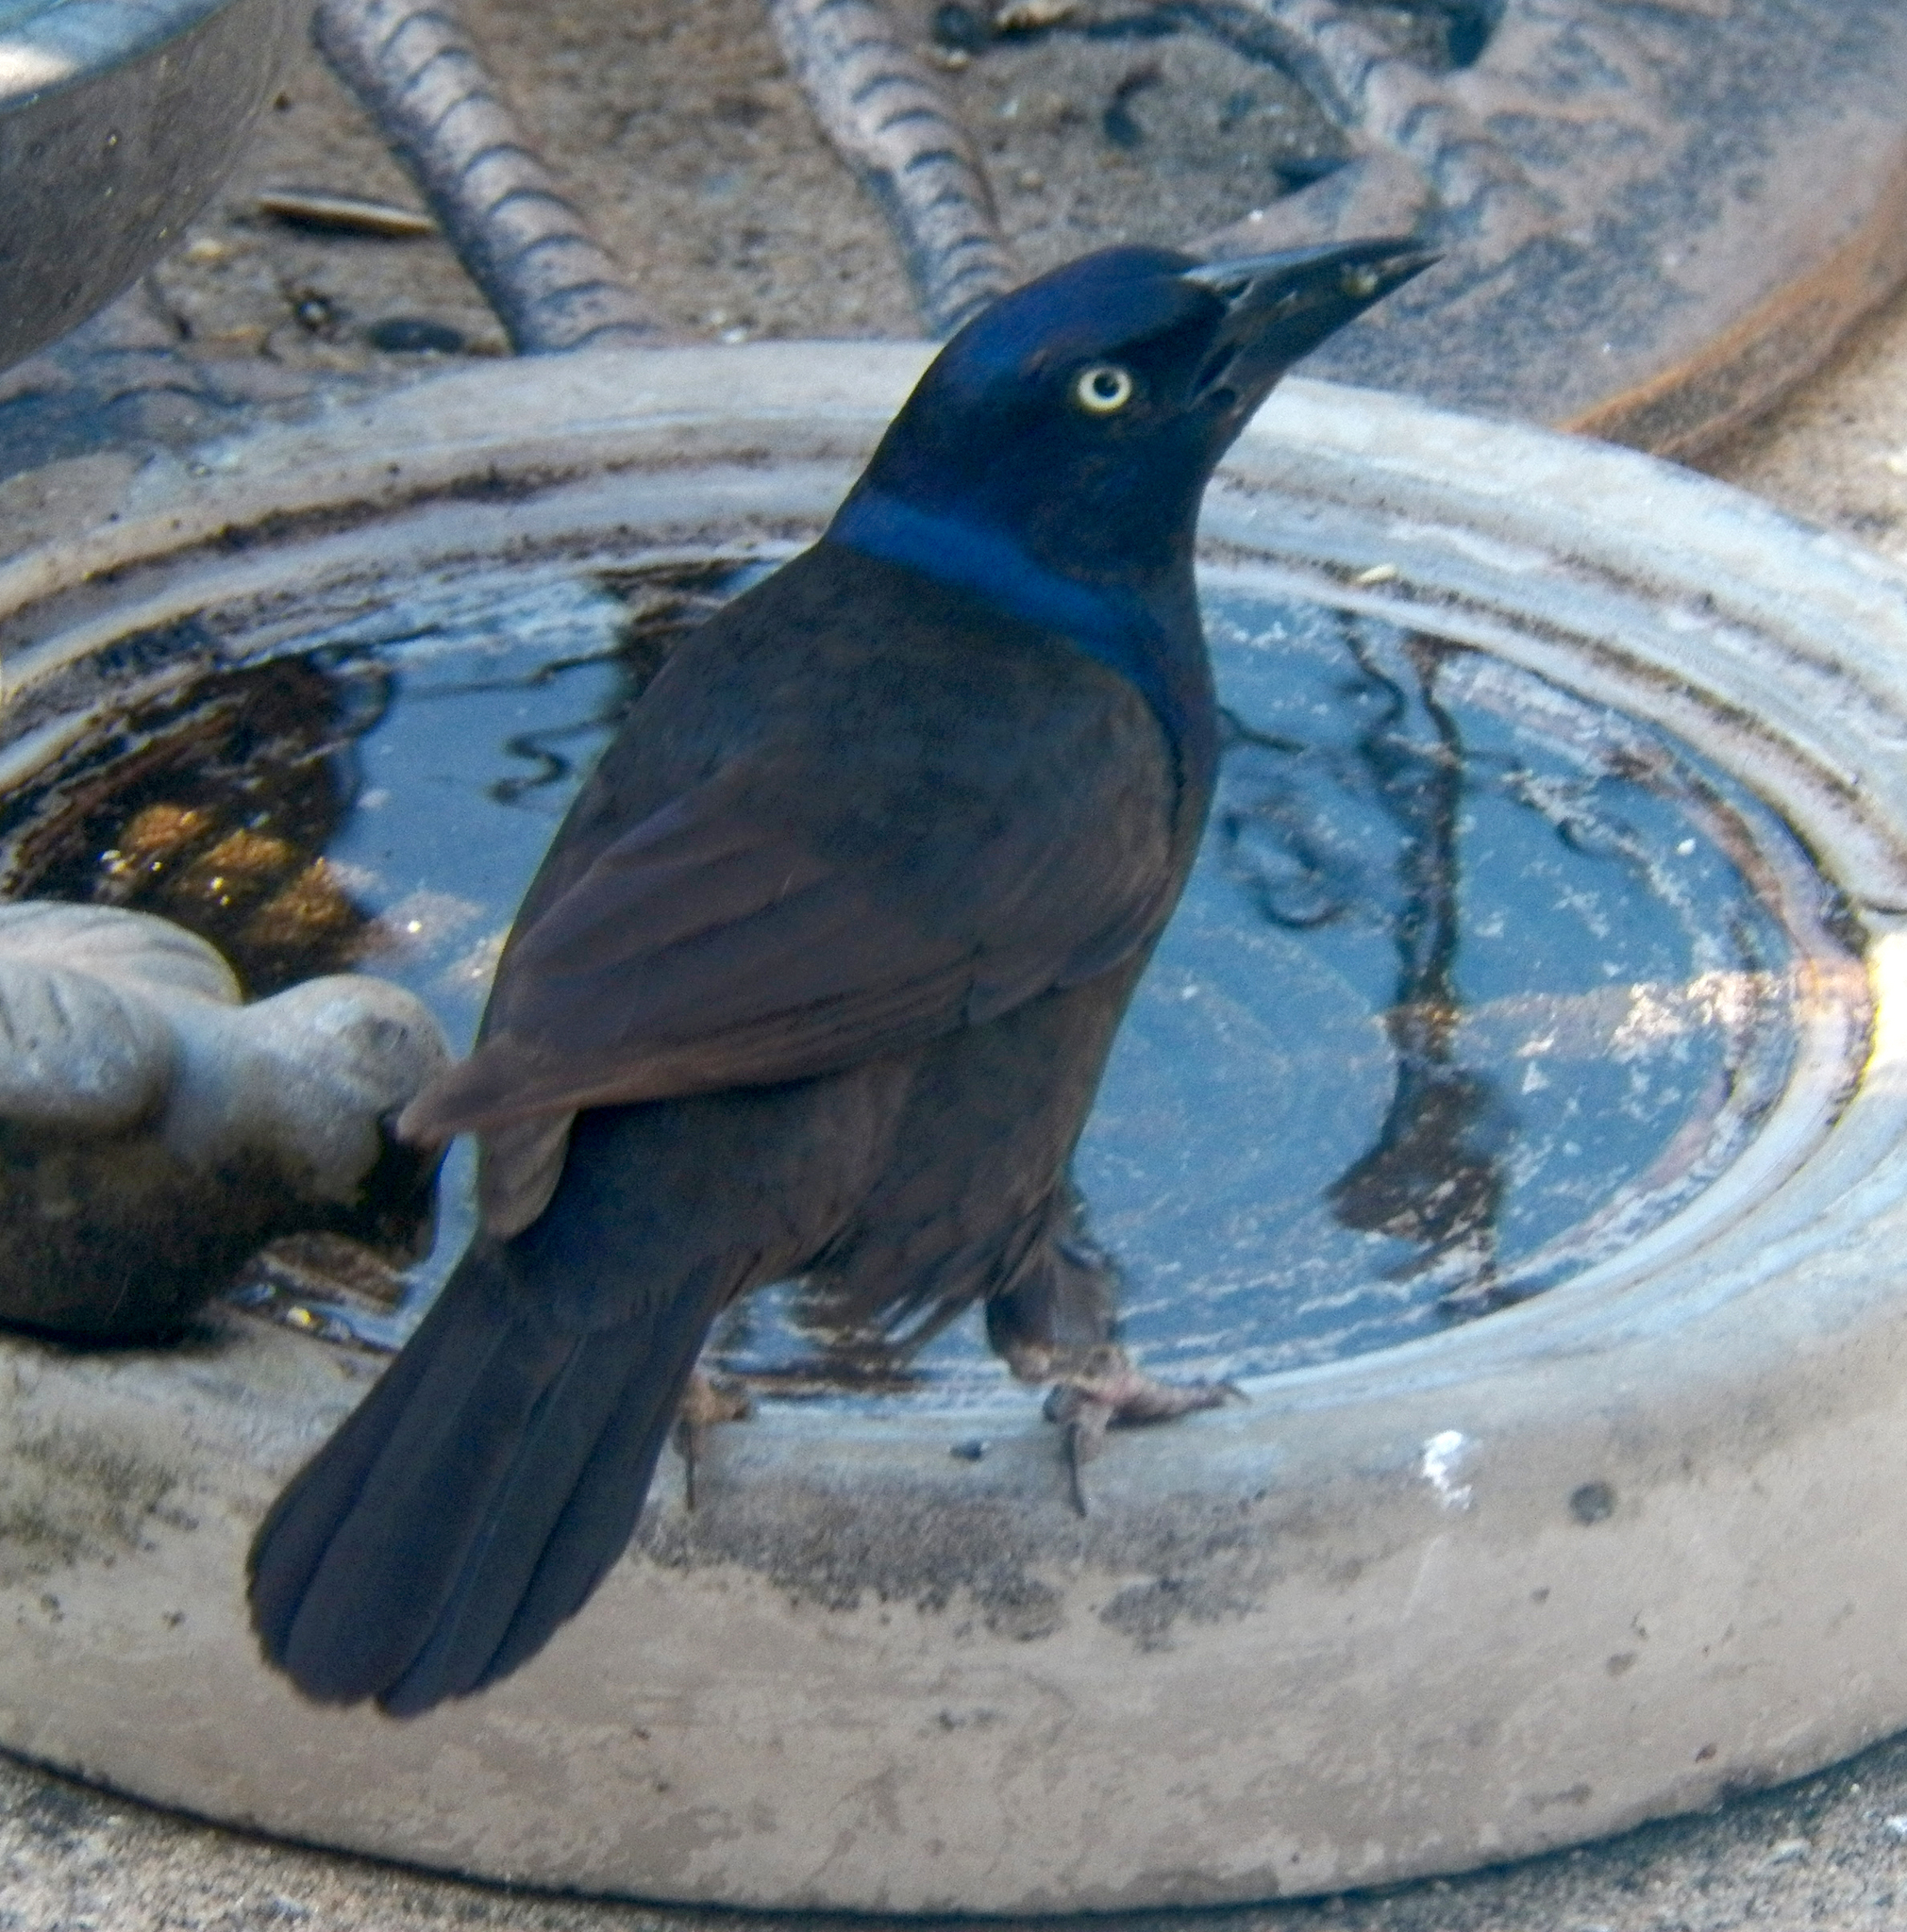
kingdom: Animalia
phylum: Chordata
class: Aves
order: Passeriformes
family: Icteridae
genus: Quiscalus
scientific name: Quiscalus quiscula
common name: Common grackle
